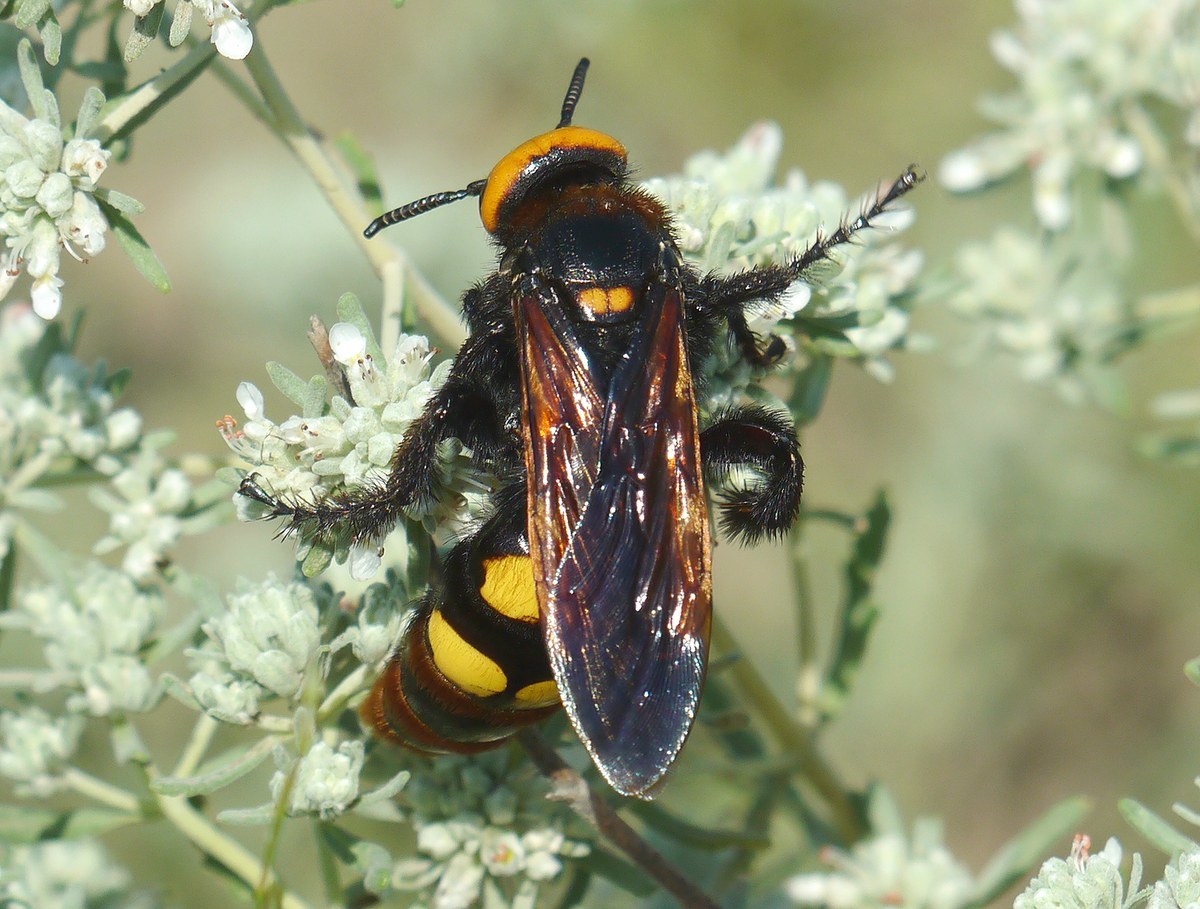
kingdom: Animalia
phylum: Arthropoda
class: Insecta
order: Hymenoptera
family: Scoliidae
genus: Megascolia
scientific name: Megascolia maculata
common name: Mammoth wasp
